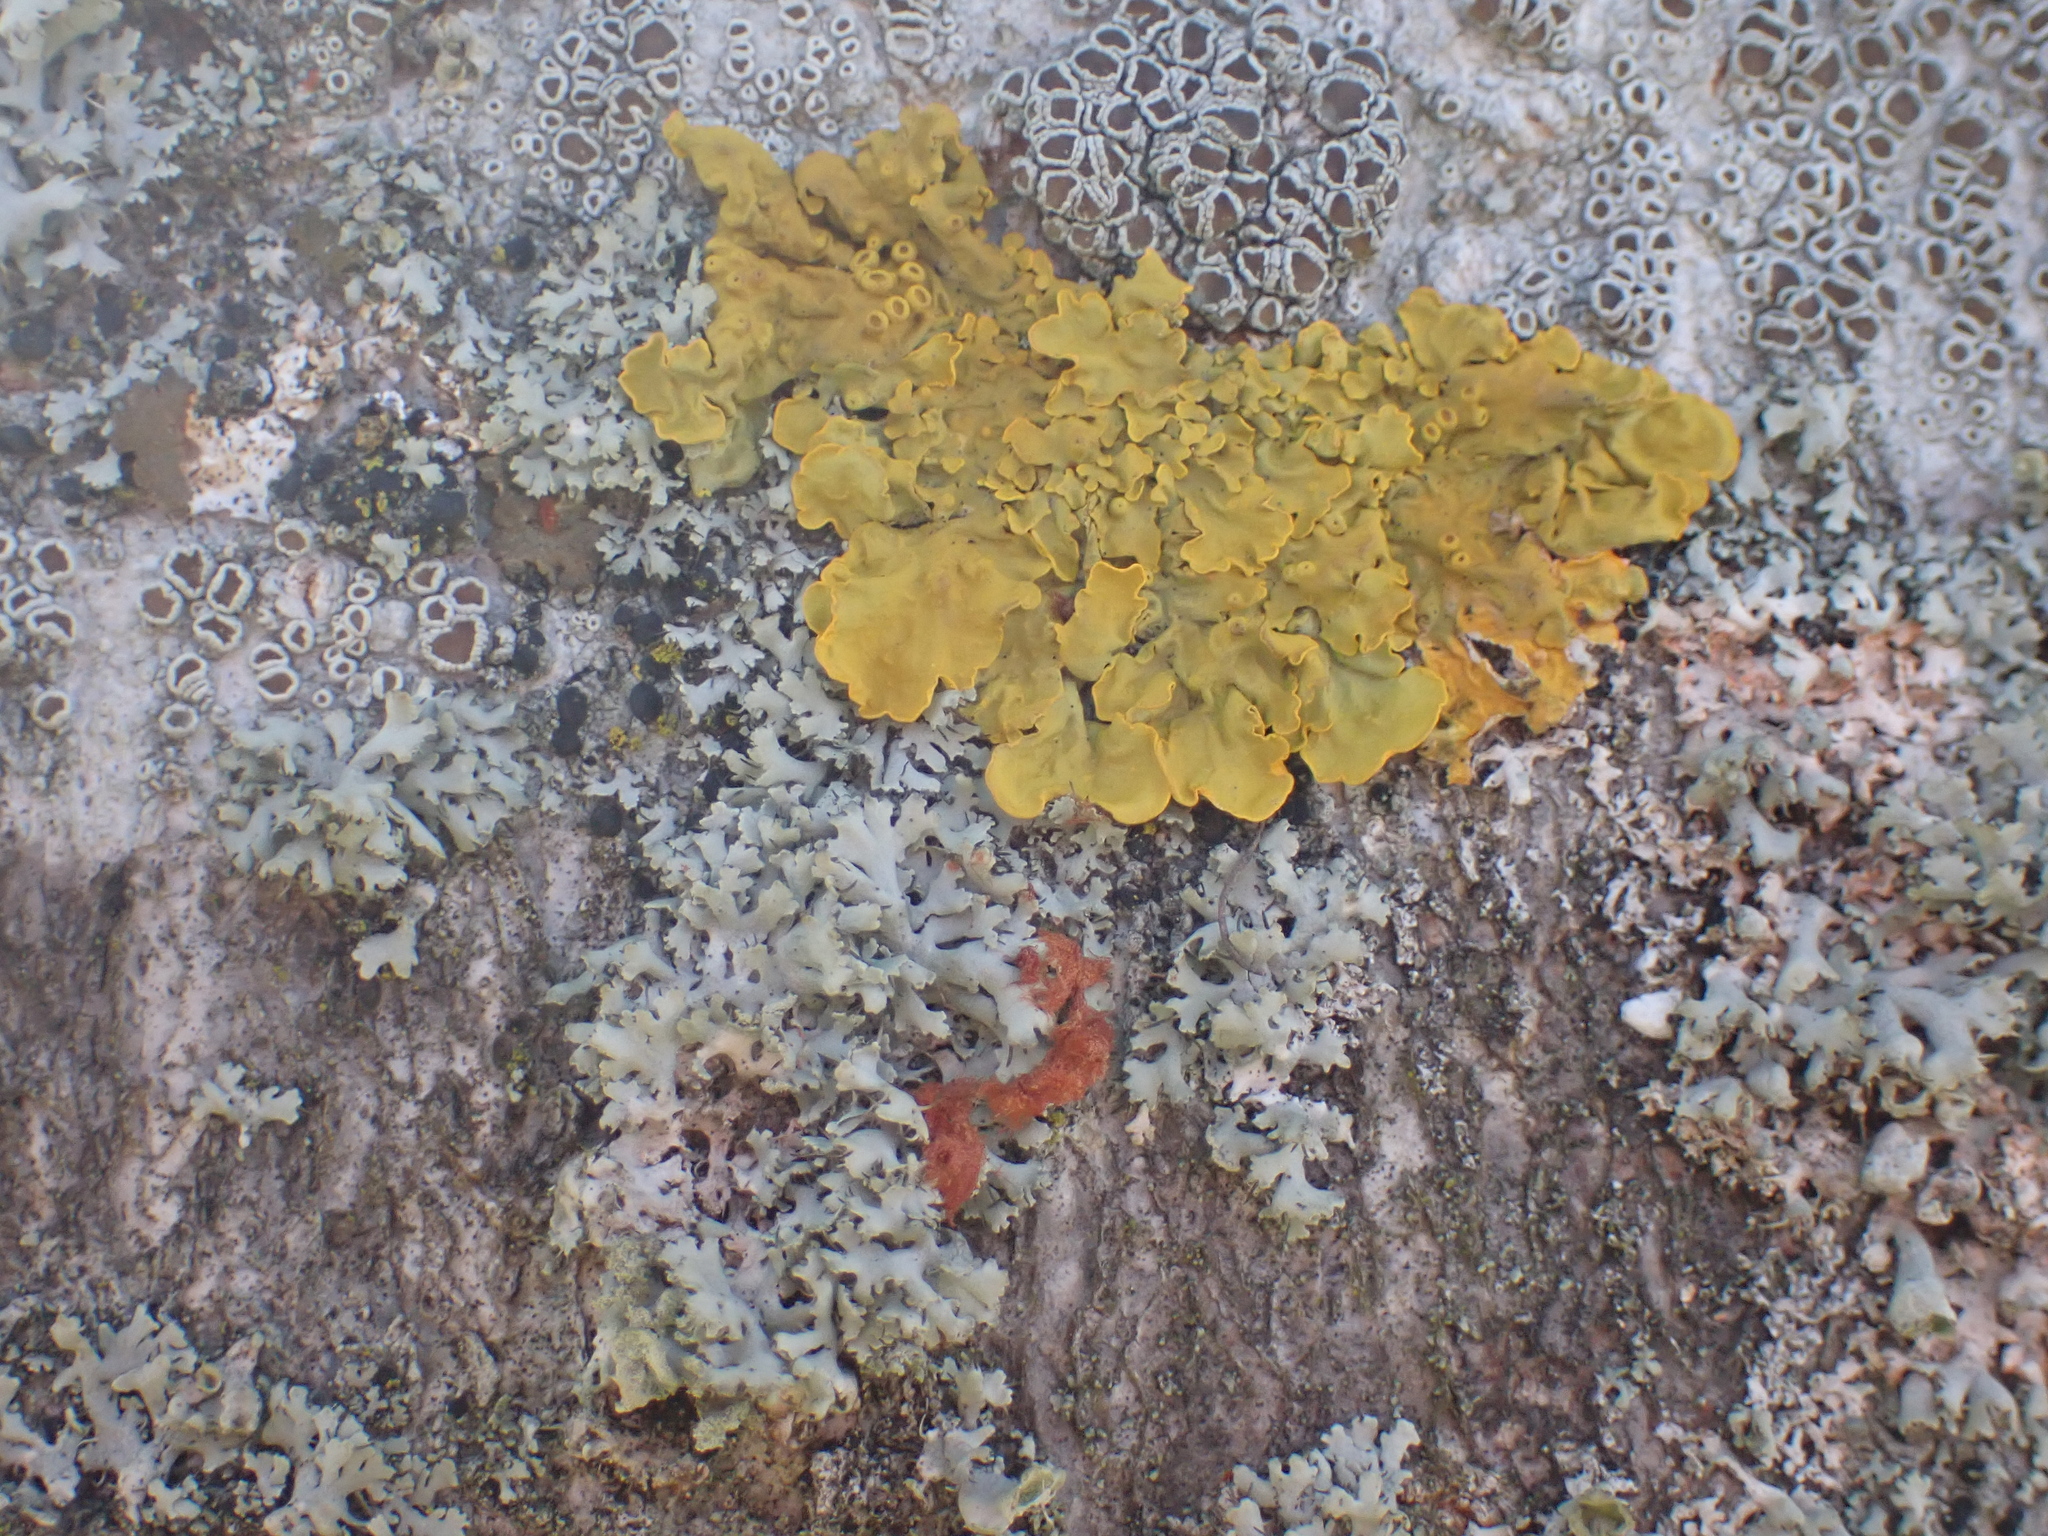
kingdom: Fungi
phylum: Ascomycota
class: Lecanoromycetes
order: Teloschistales
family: Teloschistaceae
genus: Xanthoria
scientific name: Xanthoria parietina
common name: Common orange lichen
